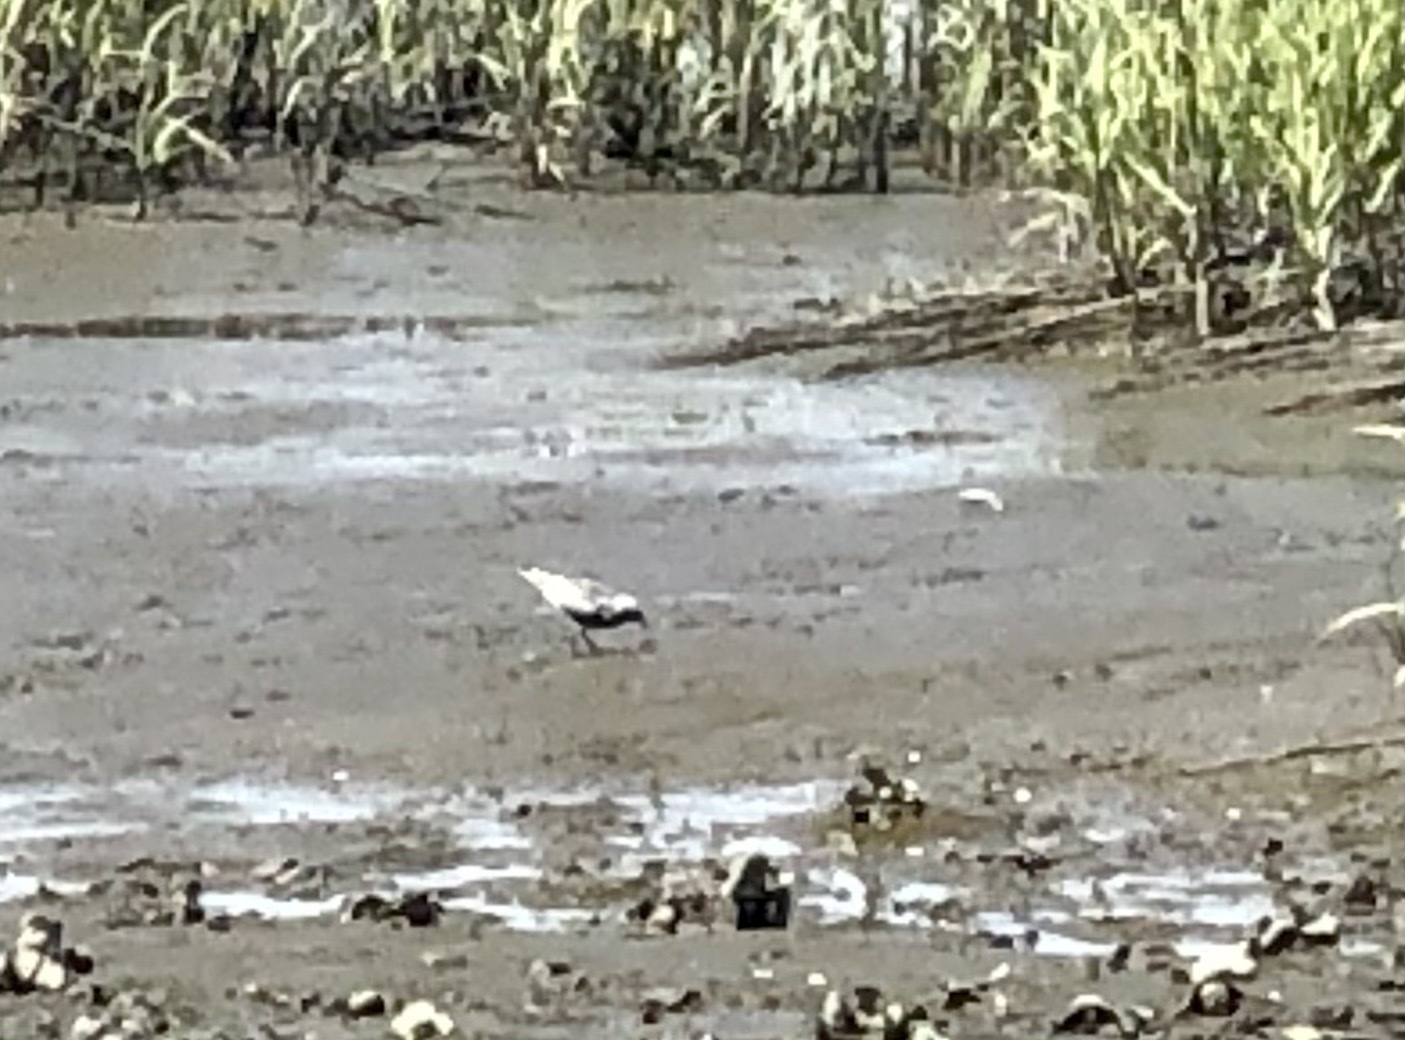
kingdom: Animalia
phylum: Chordata
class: Aves
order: Charadriiformes
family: Charadriidae
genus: Pluvialis
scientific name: Pluvialis squatarola
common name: Grey plover
